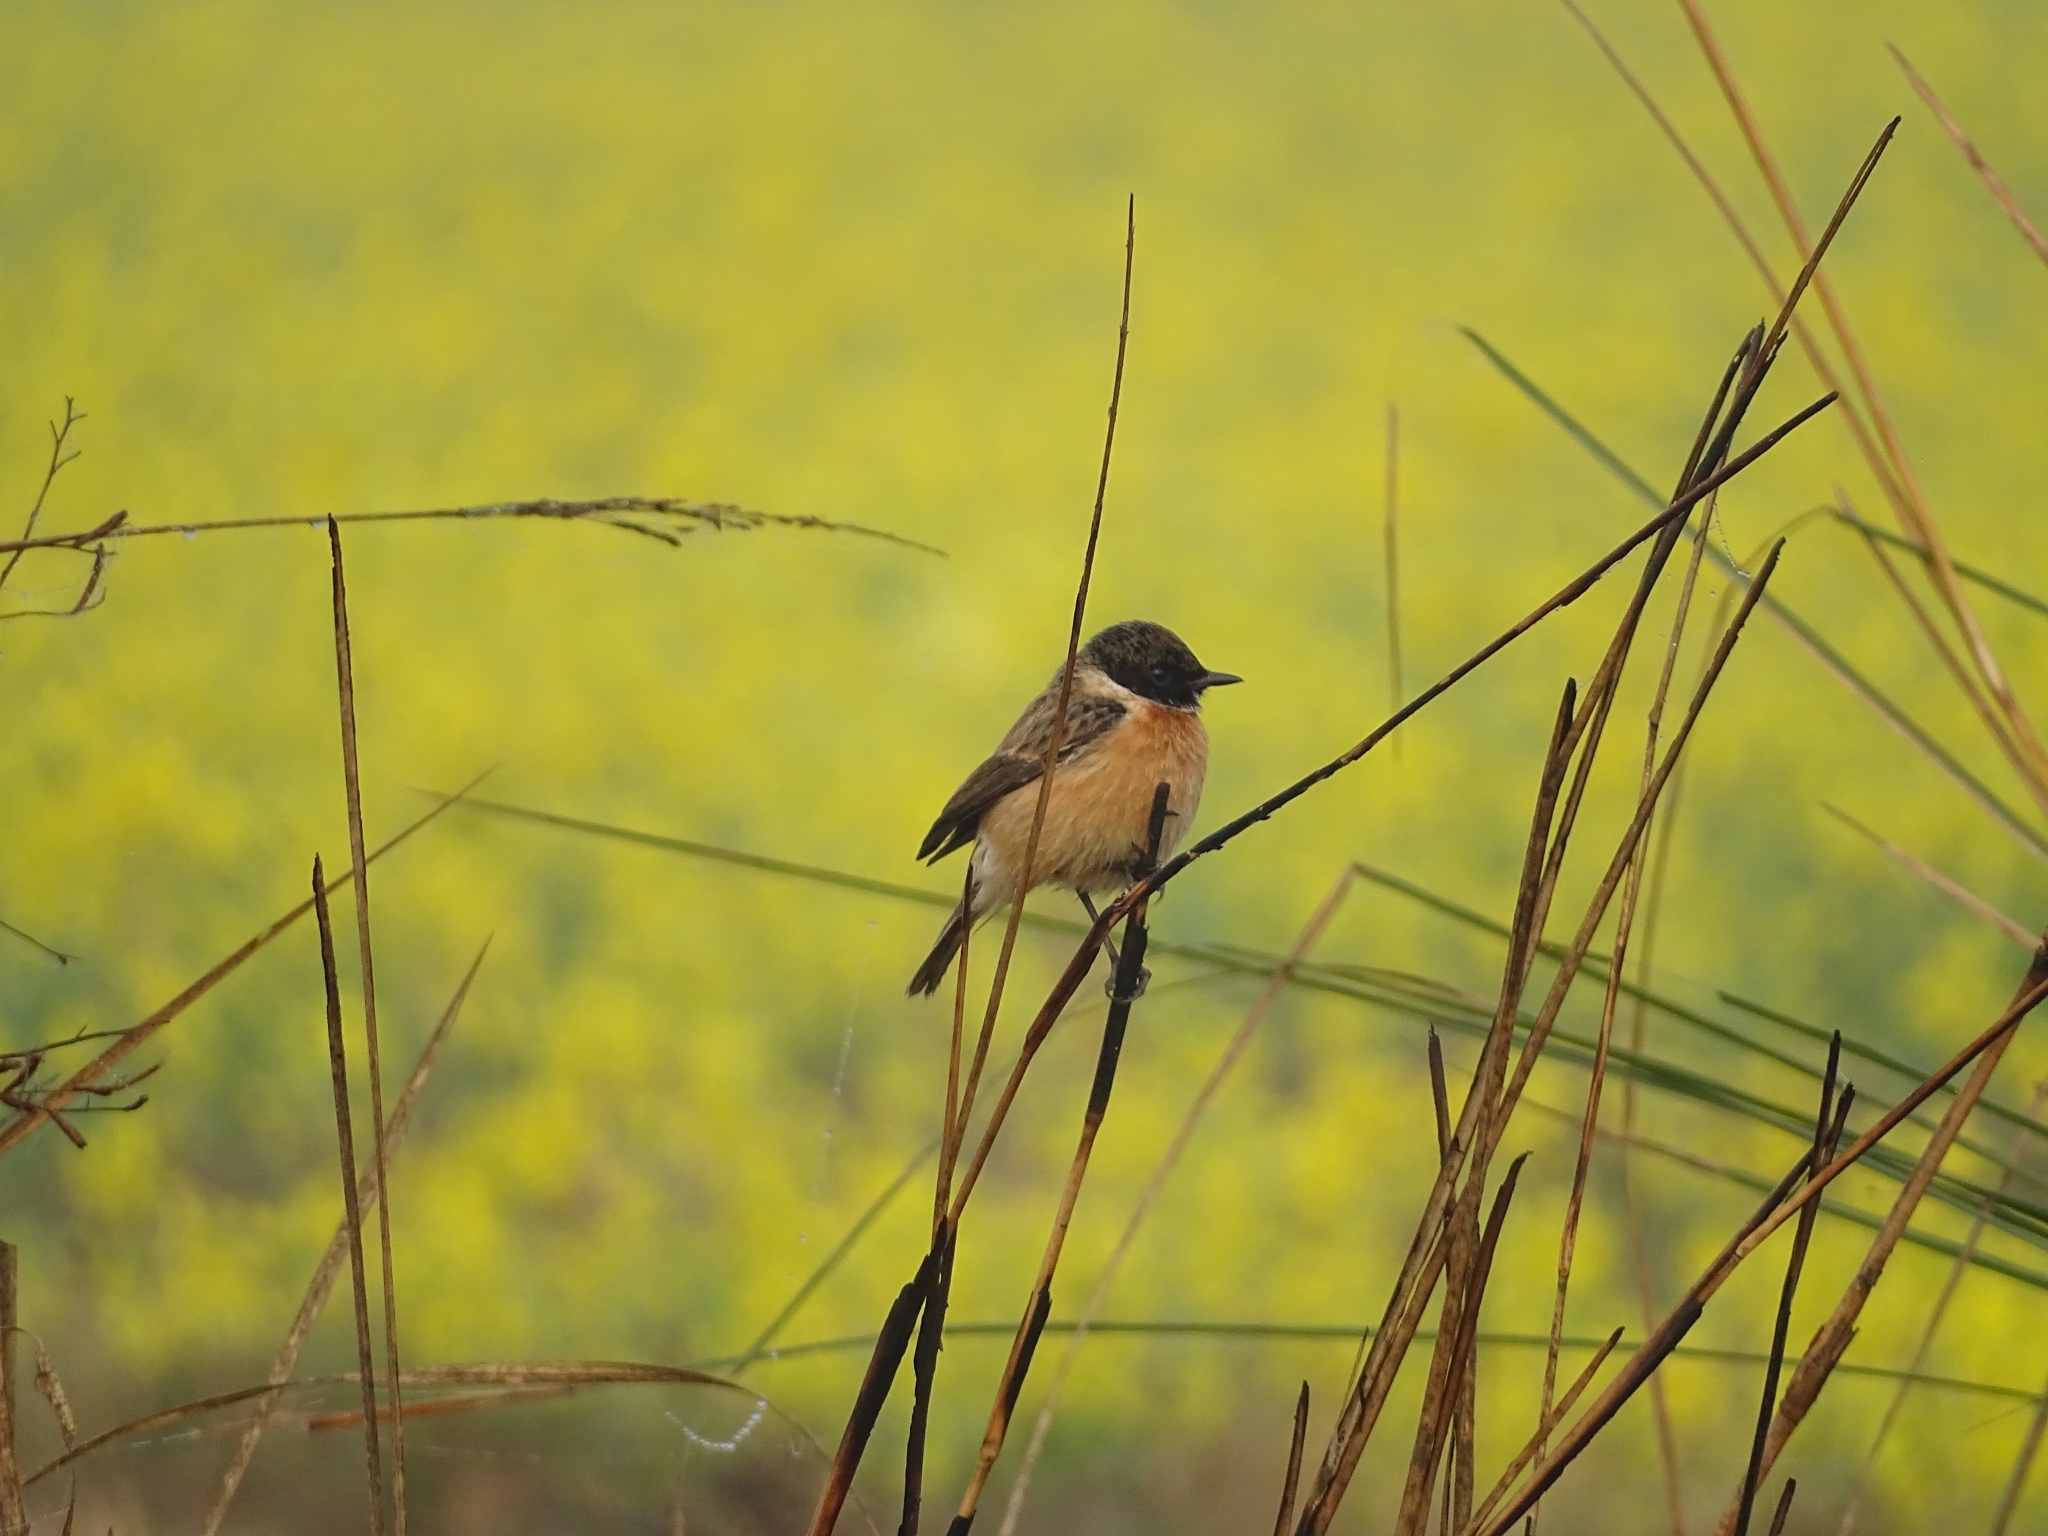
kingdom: Animalia
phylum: Chordata
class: Aves
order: Passeriformes
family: Muscicapidae
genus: Saxicola
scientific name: Saxicola maurus
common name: Siberian stonechat
